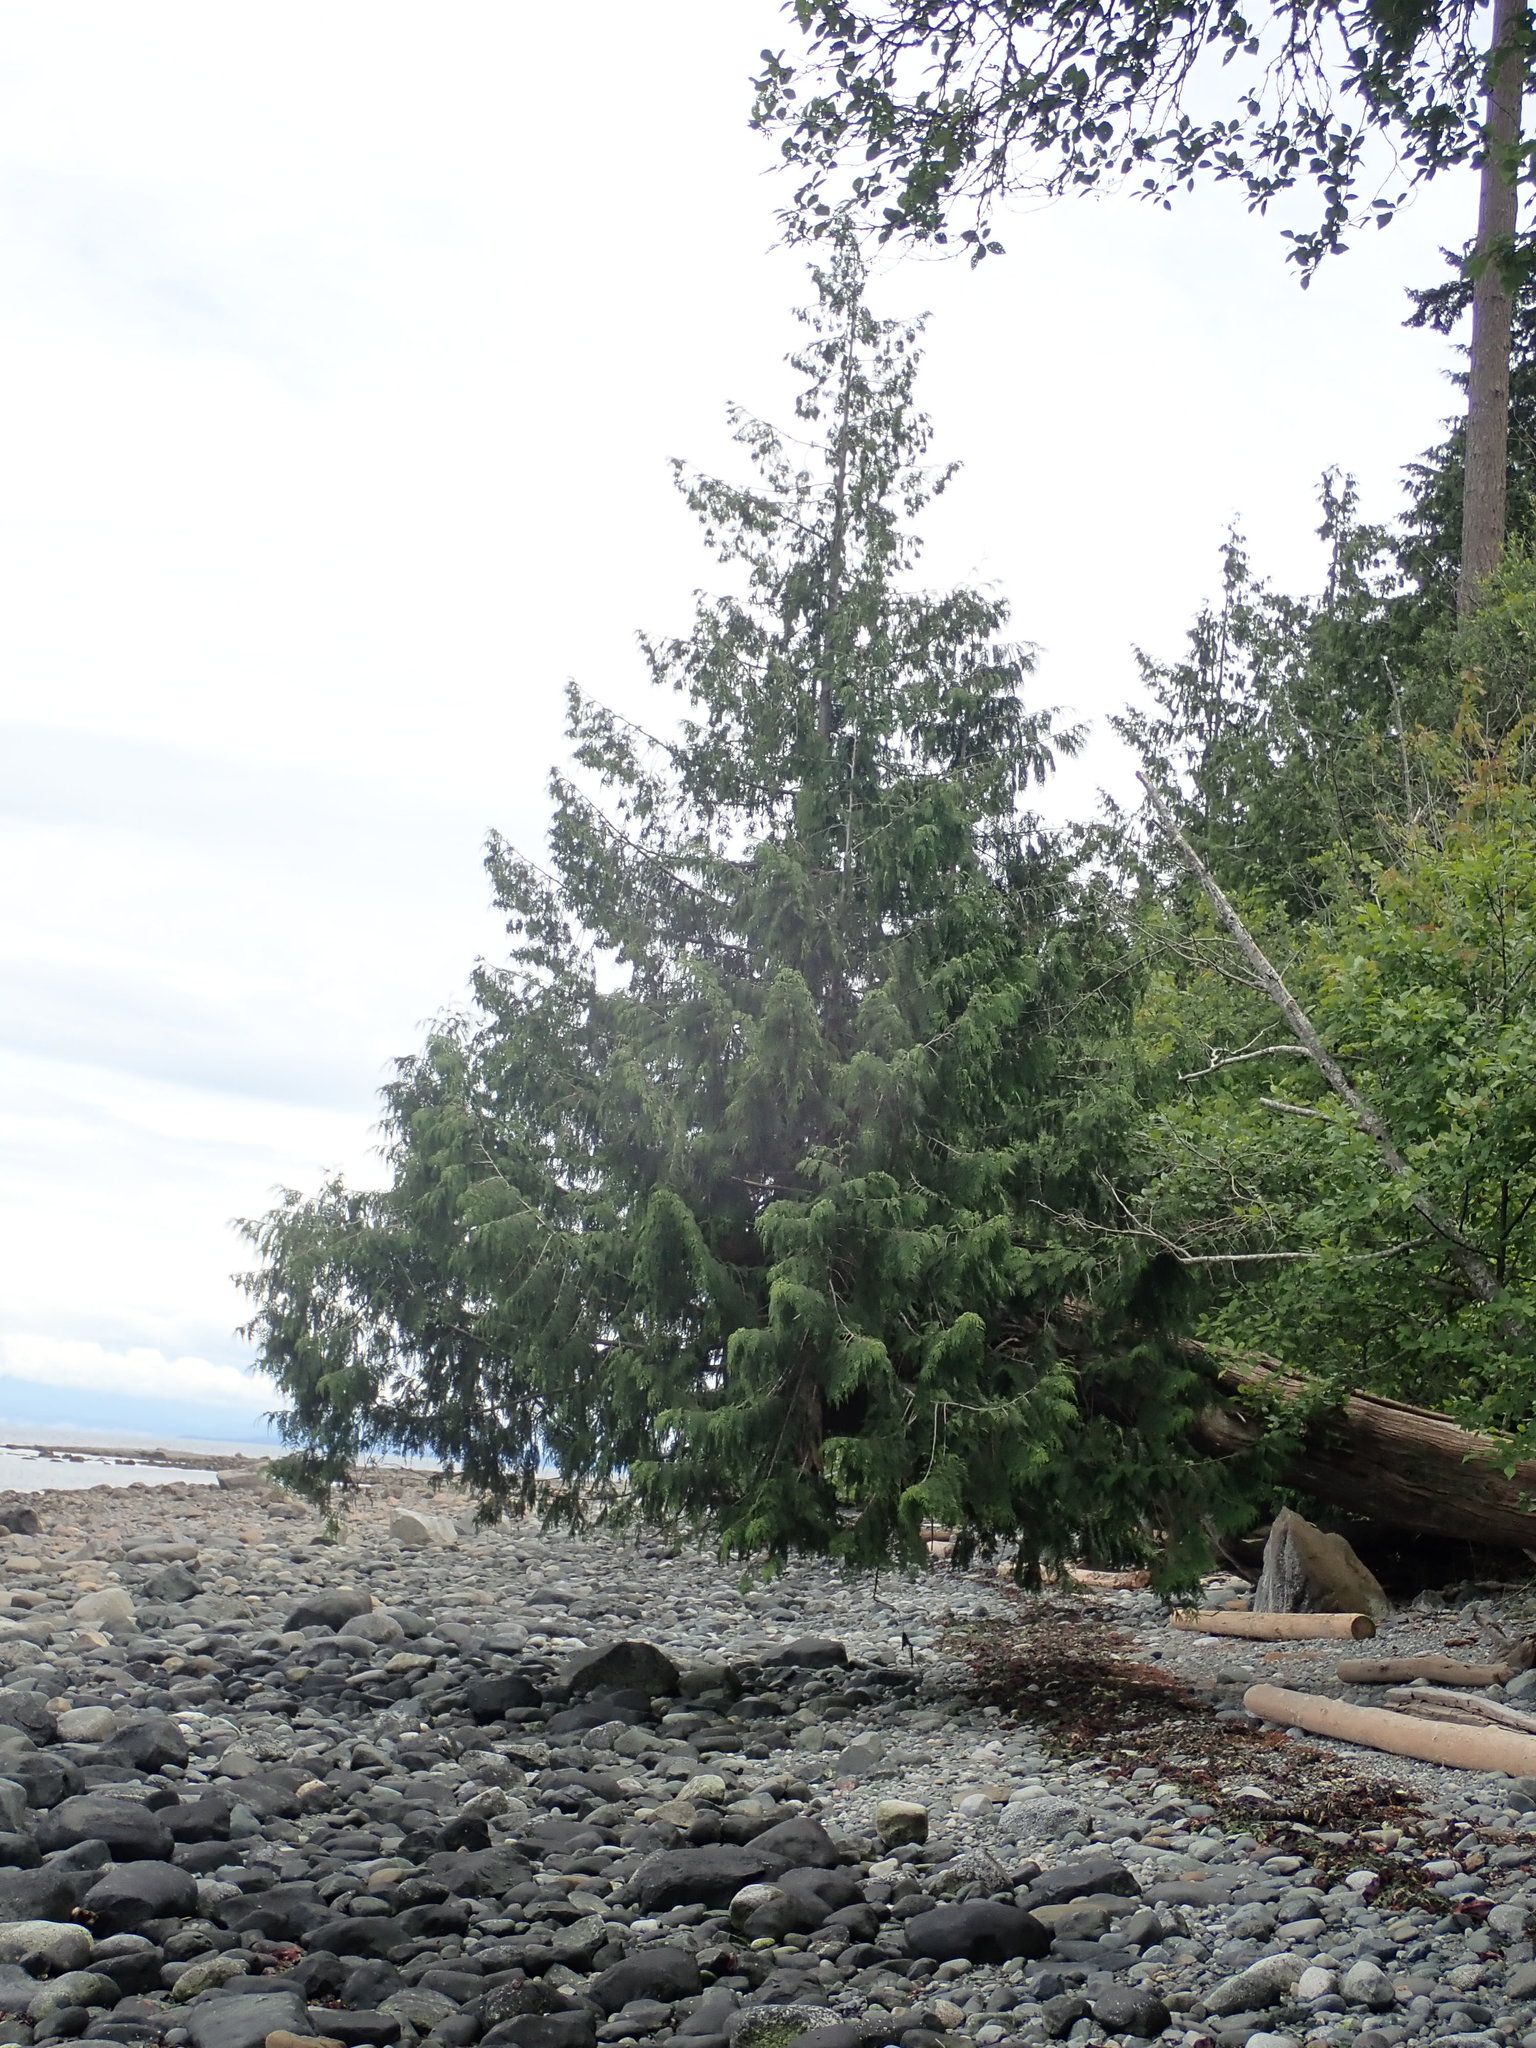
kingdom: Plantae
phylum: Tracheophyta
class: Pinopsida
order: Pinales
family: Cupressaceae
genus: Thuja
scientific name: Thuja plicata
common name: Western red-cedar
